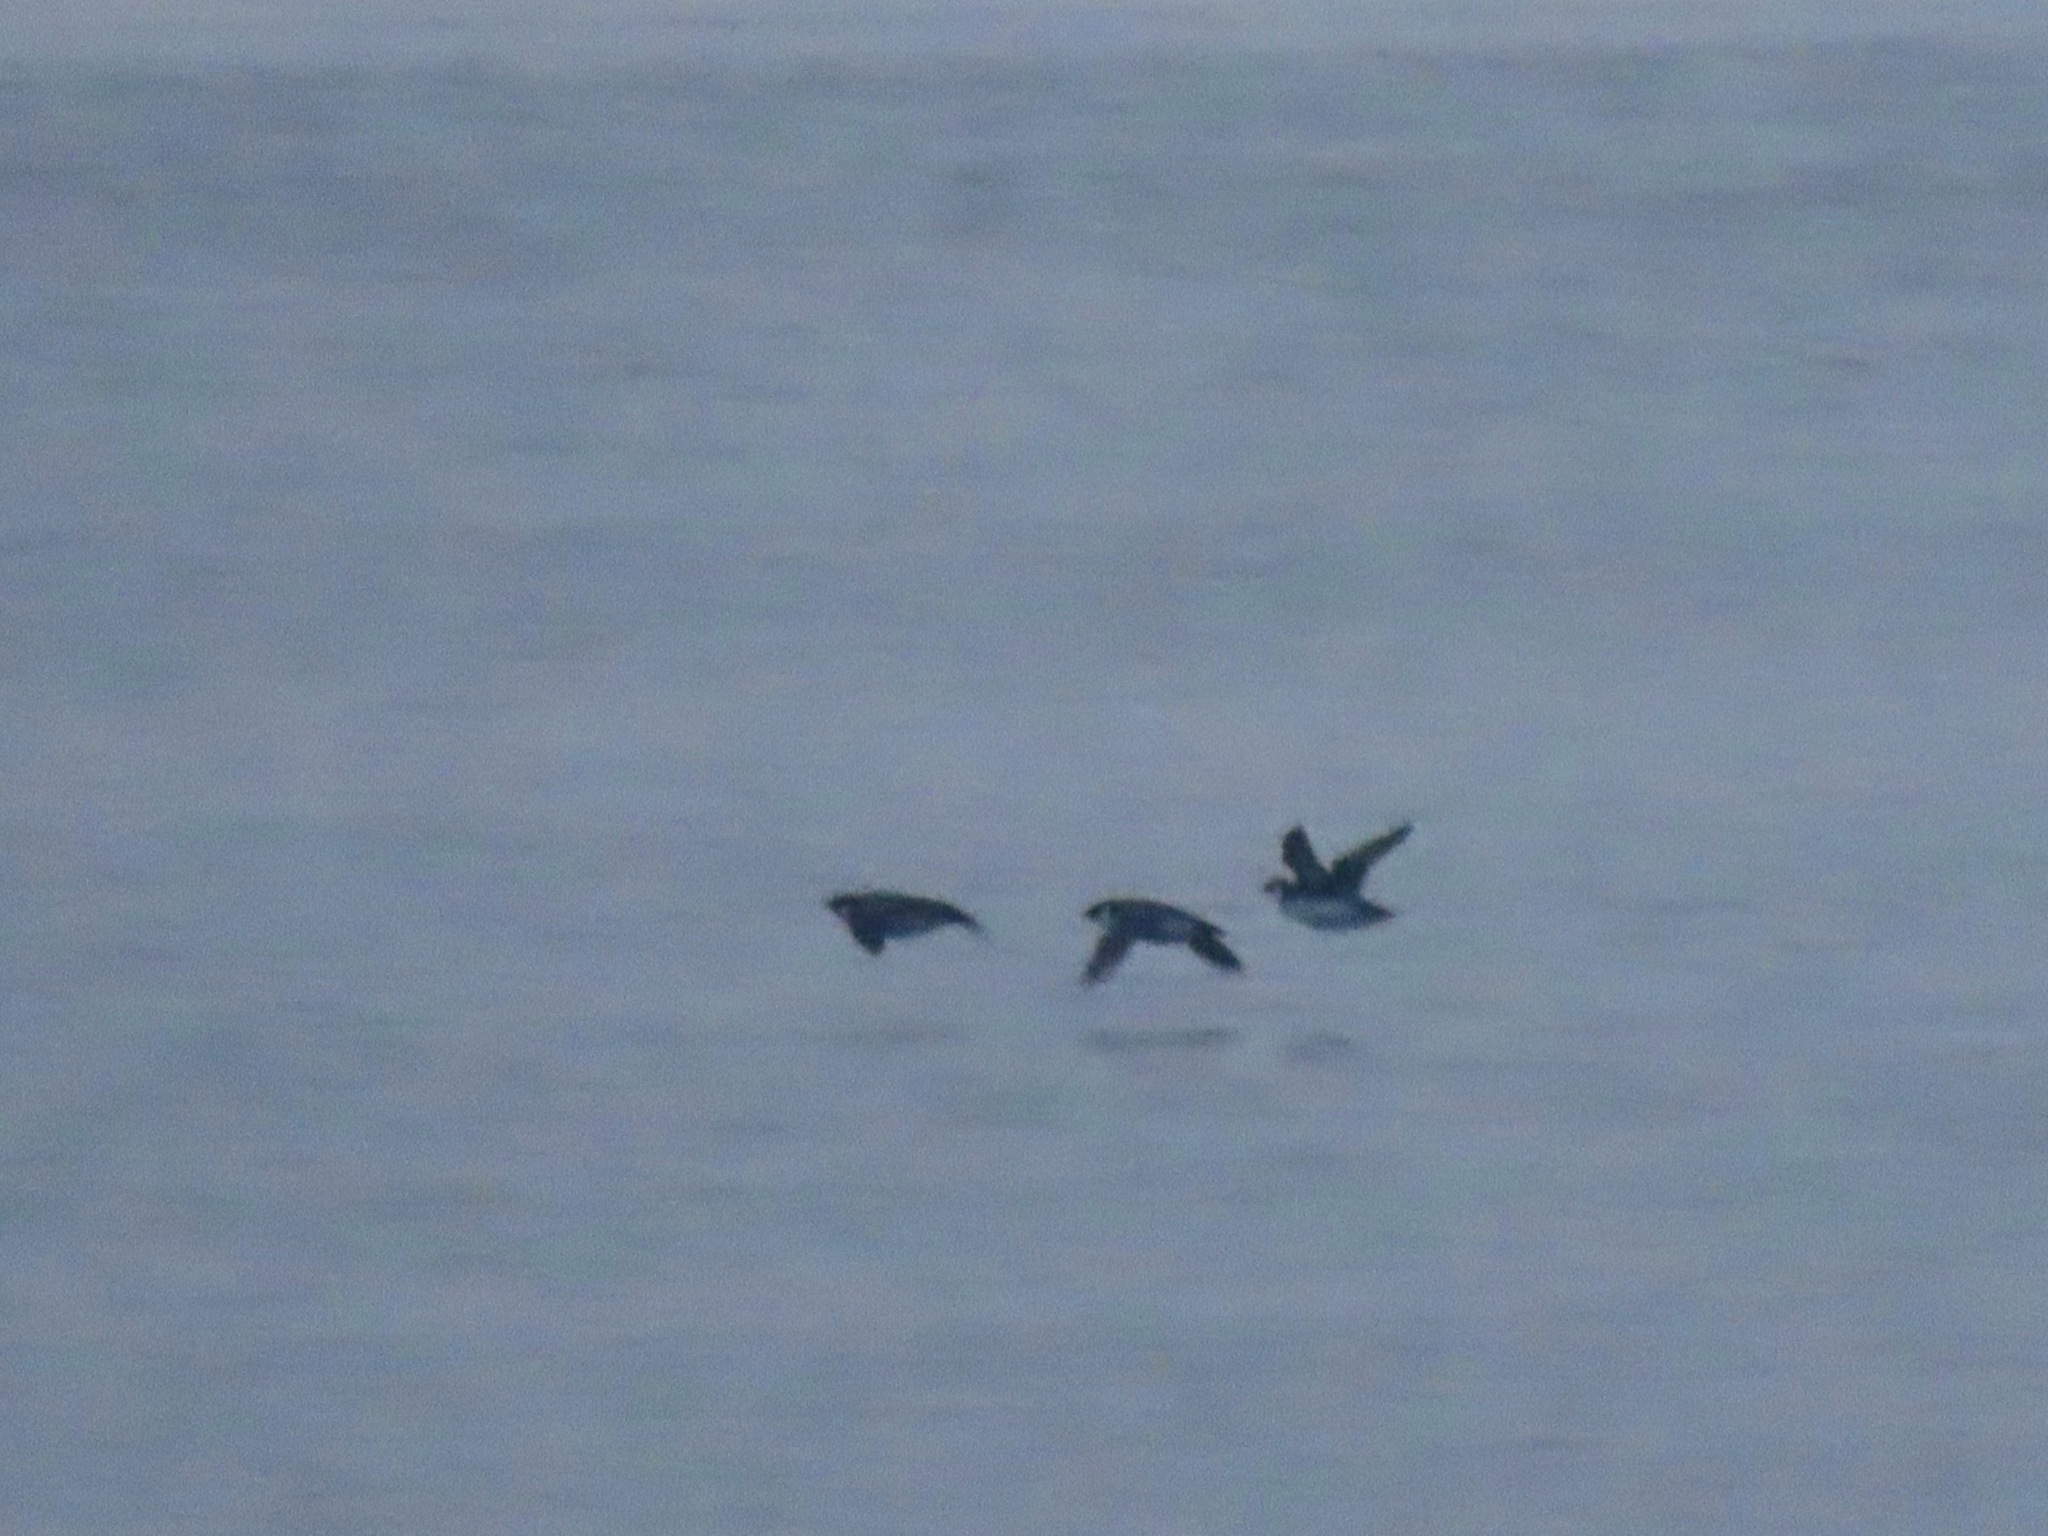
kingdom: Animalia
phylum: Chordata
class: Aves
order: Charadriiformes
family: Alcidae
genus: Synthliboramphus
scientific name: Synthliboramphus antiquus
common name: Ancient murrelet
